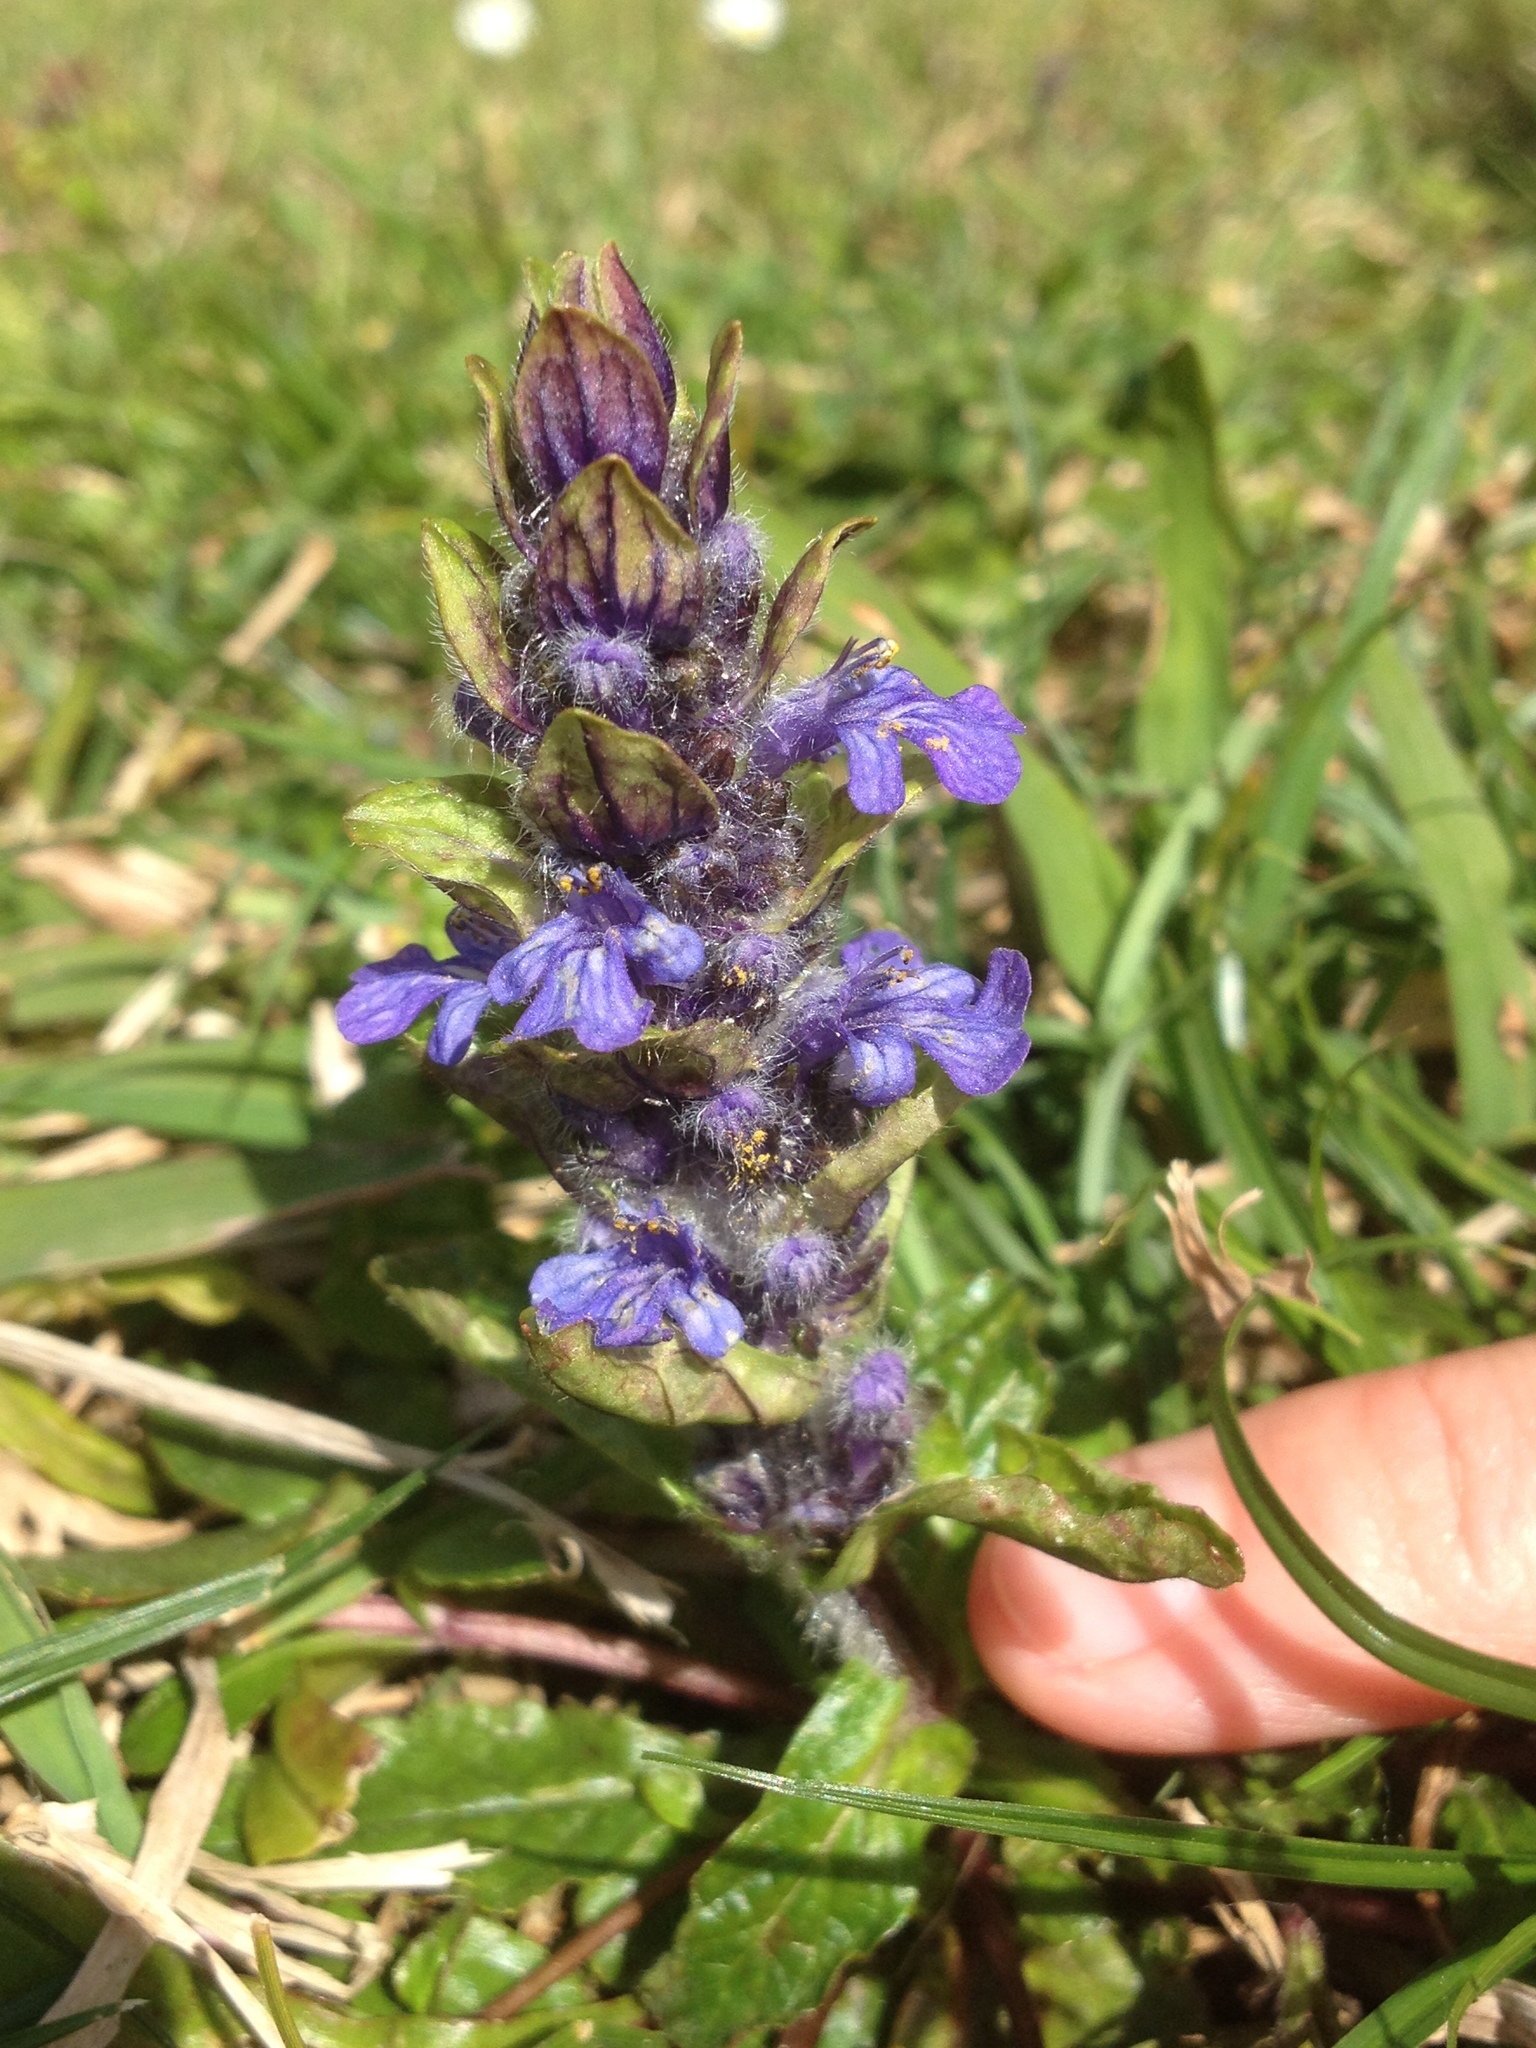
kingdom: Plantae
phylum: Tracheophyta
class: Magnoliopsida
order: Lamiales
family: Lamiaceae
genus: Ajuga
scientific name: Ajuga reptans
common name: Bugle
